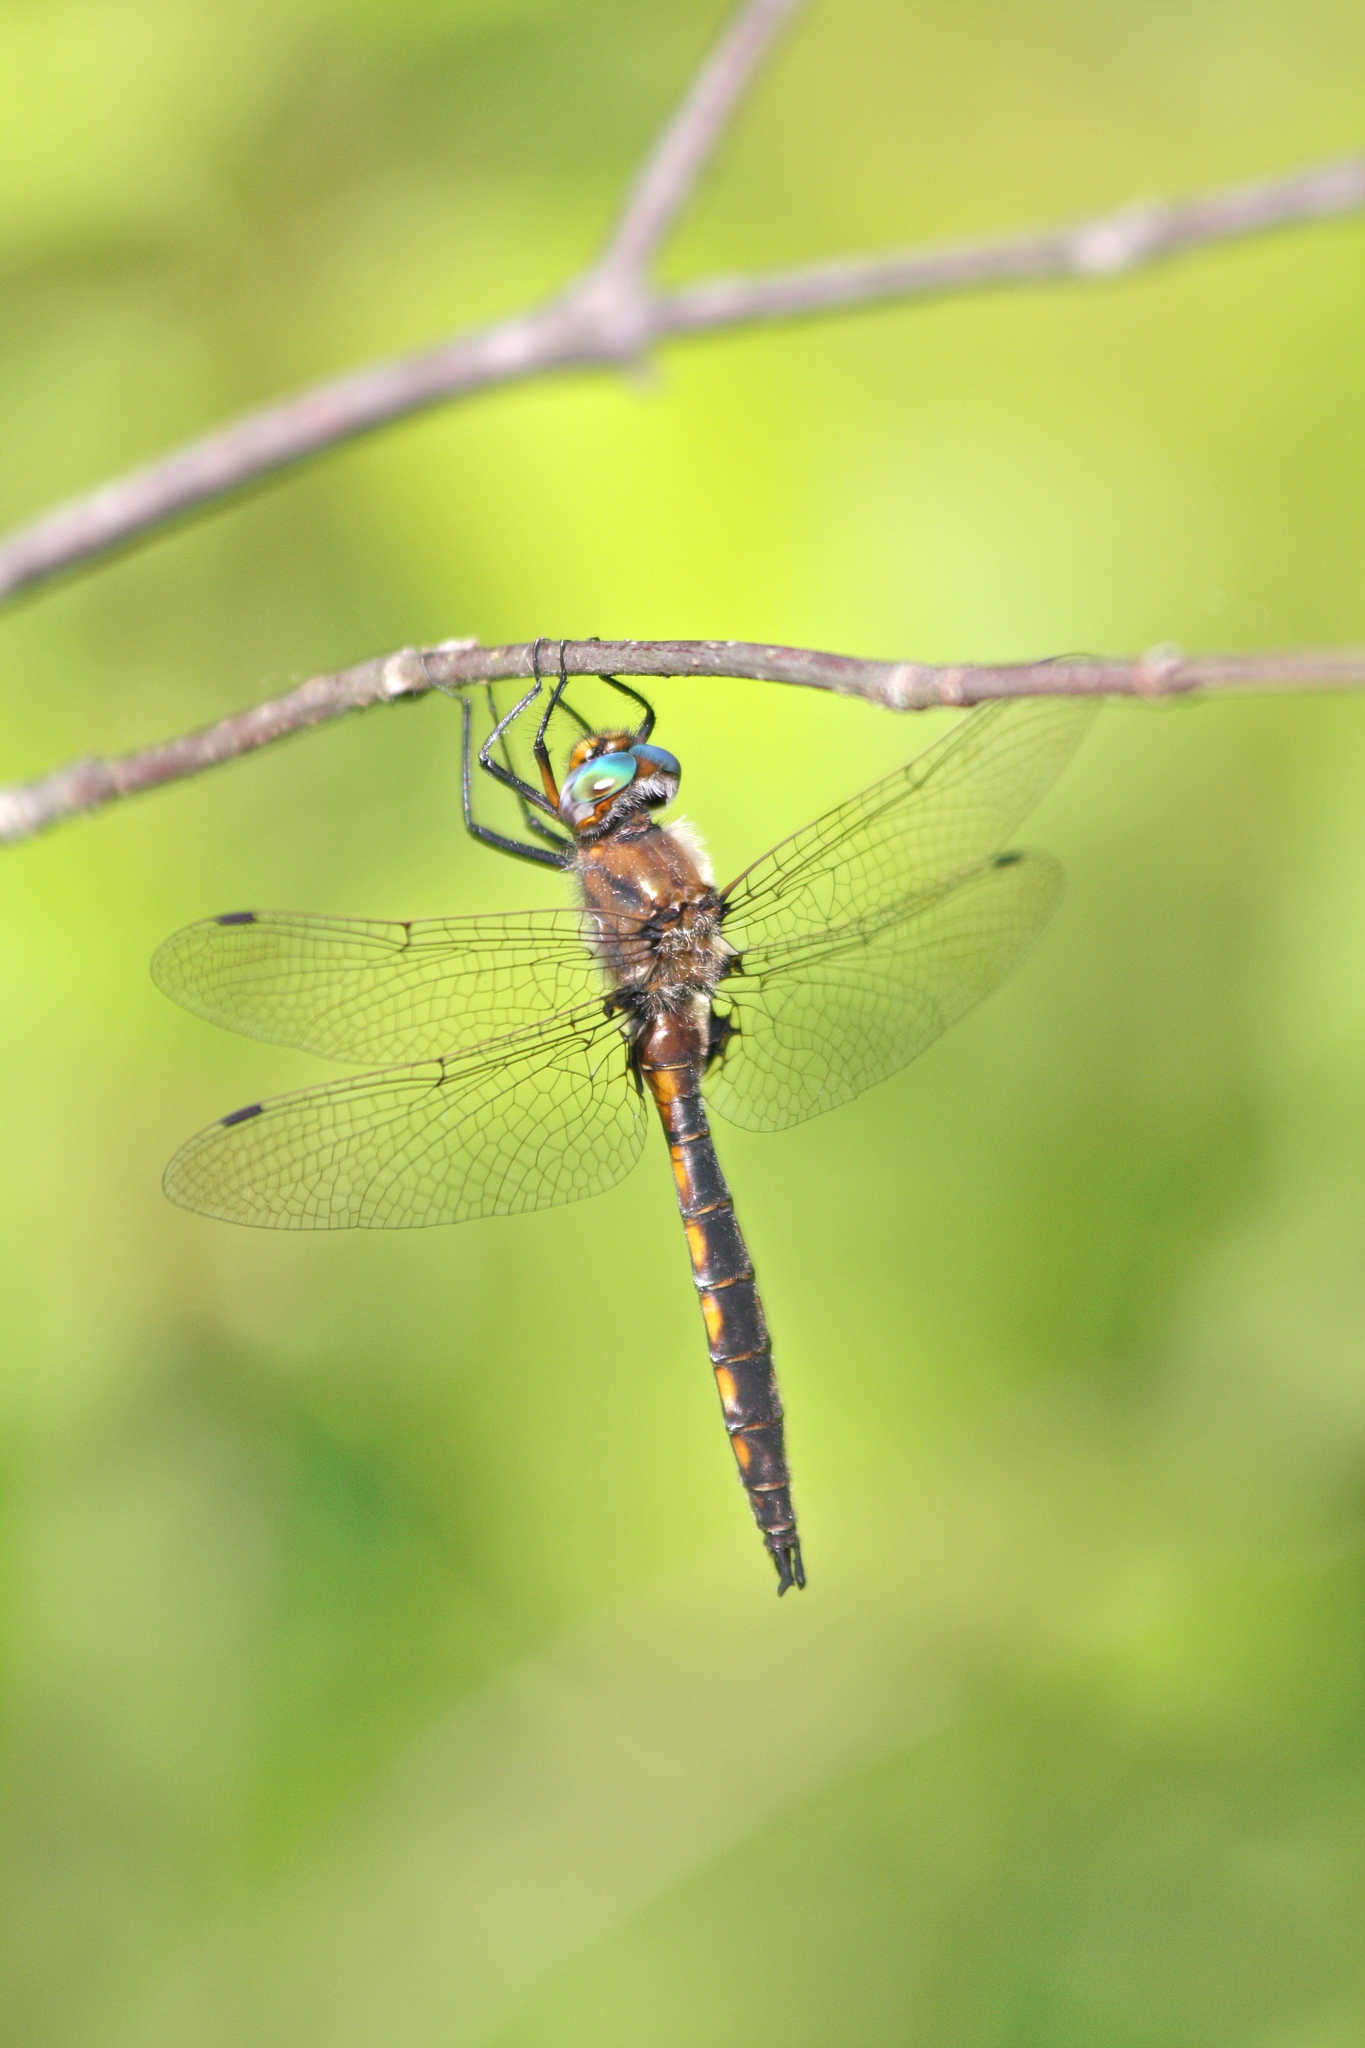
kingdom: Animalia
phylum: Arthropoda
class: Insecta
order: Odonata
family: Corduliidae
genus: Epitheca
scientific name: Epitheca canis
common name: Beaverpond baskettail
